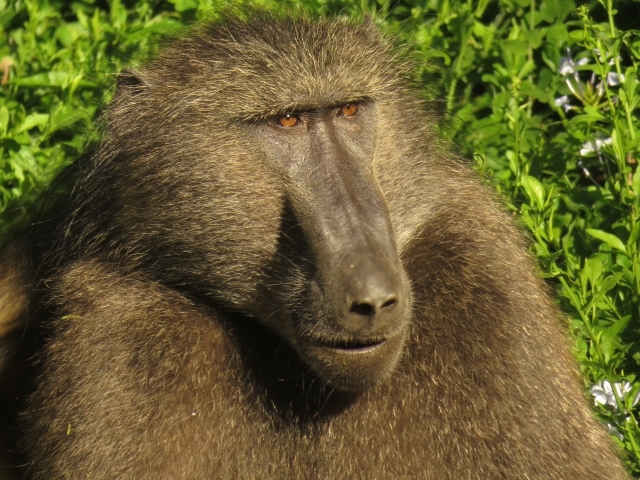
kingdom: Animalia
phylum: Chordata
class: Mammalia
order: Primates
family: Cercopithecidae
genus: Papio
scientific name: Papio ursinus
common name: Chacma baboon
